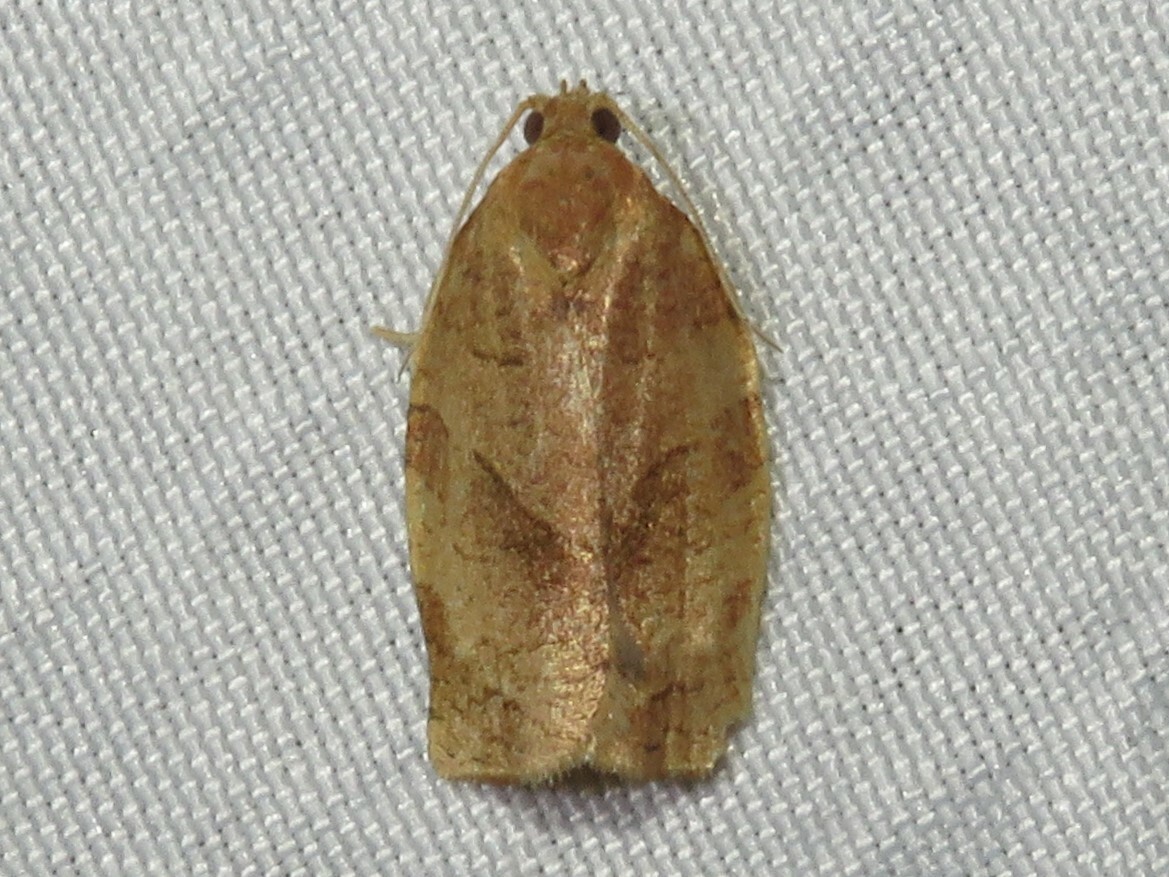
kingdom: Animalia
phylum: Arthropoda
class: Insecta
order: Lepidoptera
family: Tortricidae
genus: Choristoneura
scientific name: Choristoneura rosaceana
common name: Oblique-banded leafroller moth
